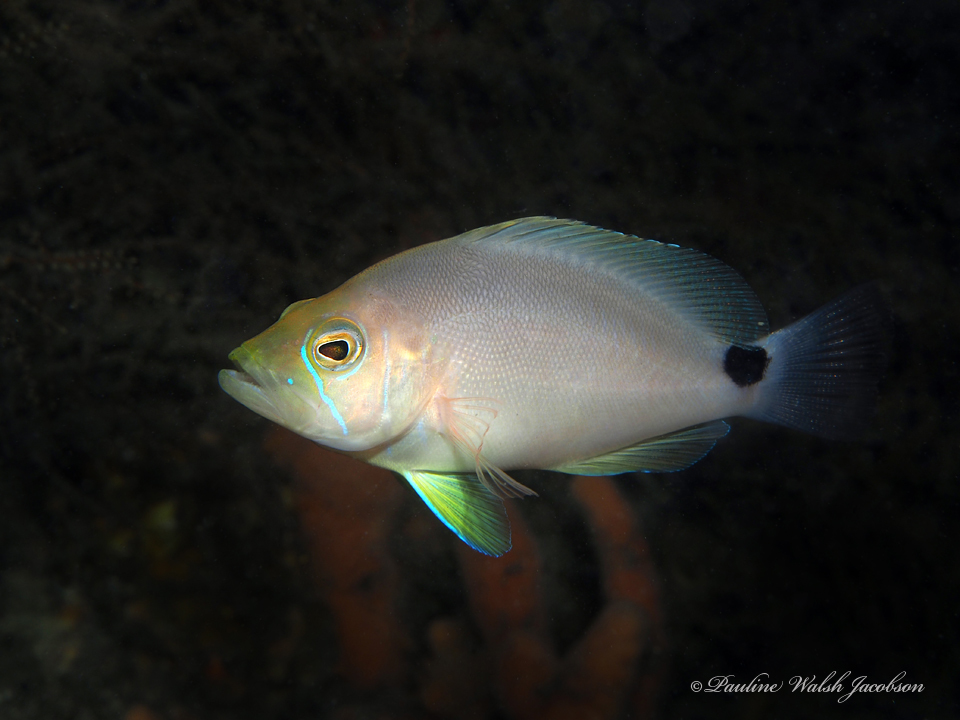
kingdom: Animalia
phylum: Chordata
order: Perciformes
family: Serranidae
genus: Hypoplectrus
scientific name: Hypoplectrus unicolor
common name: Butter hamlet
